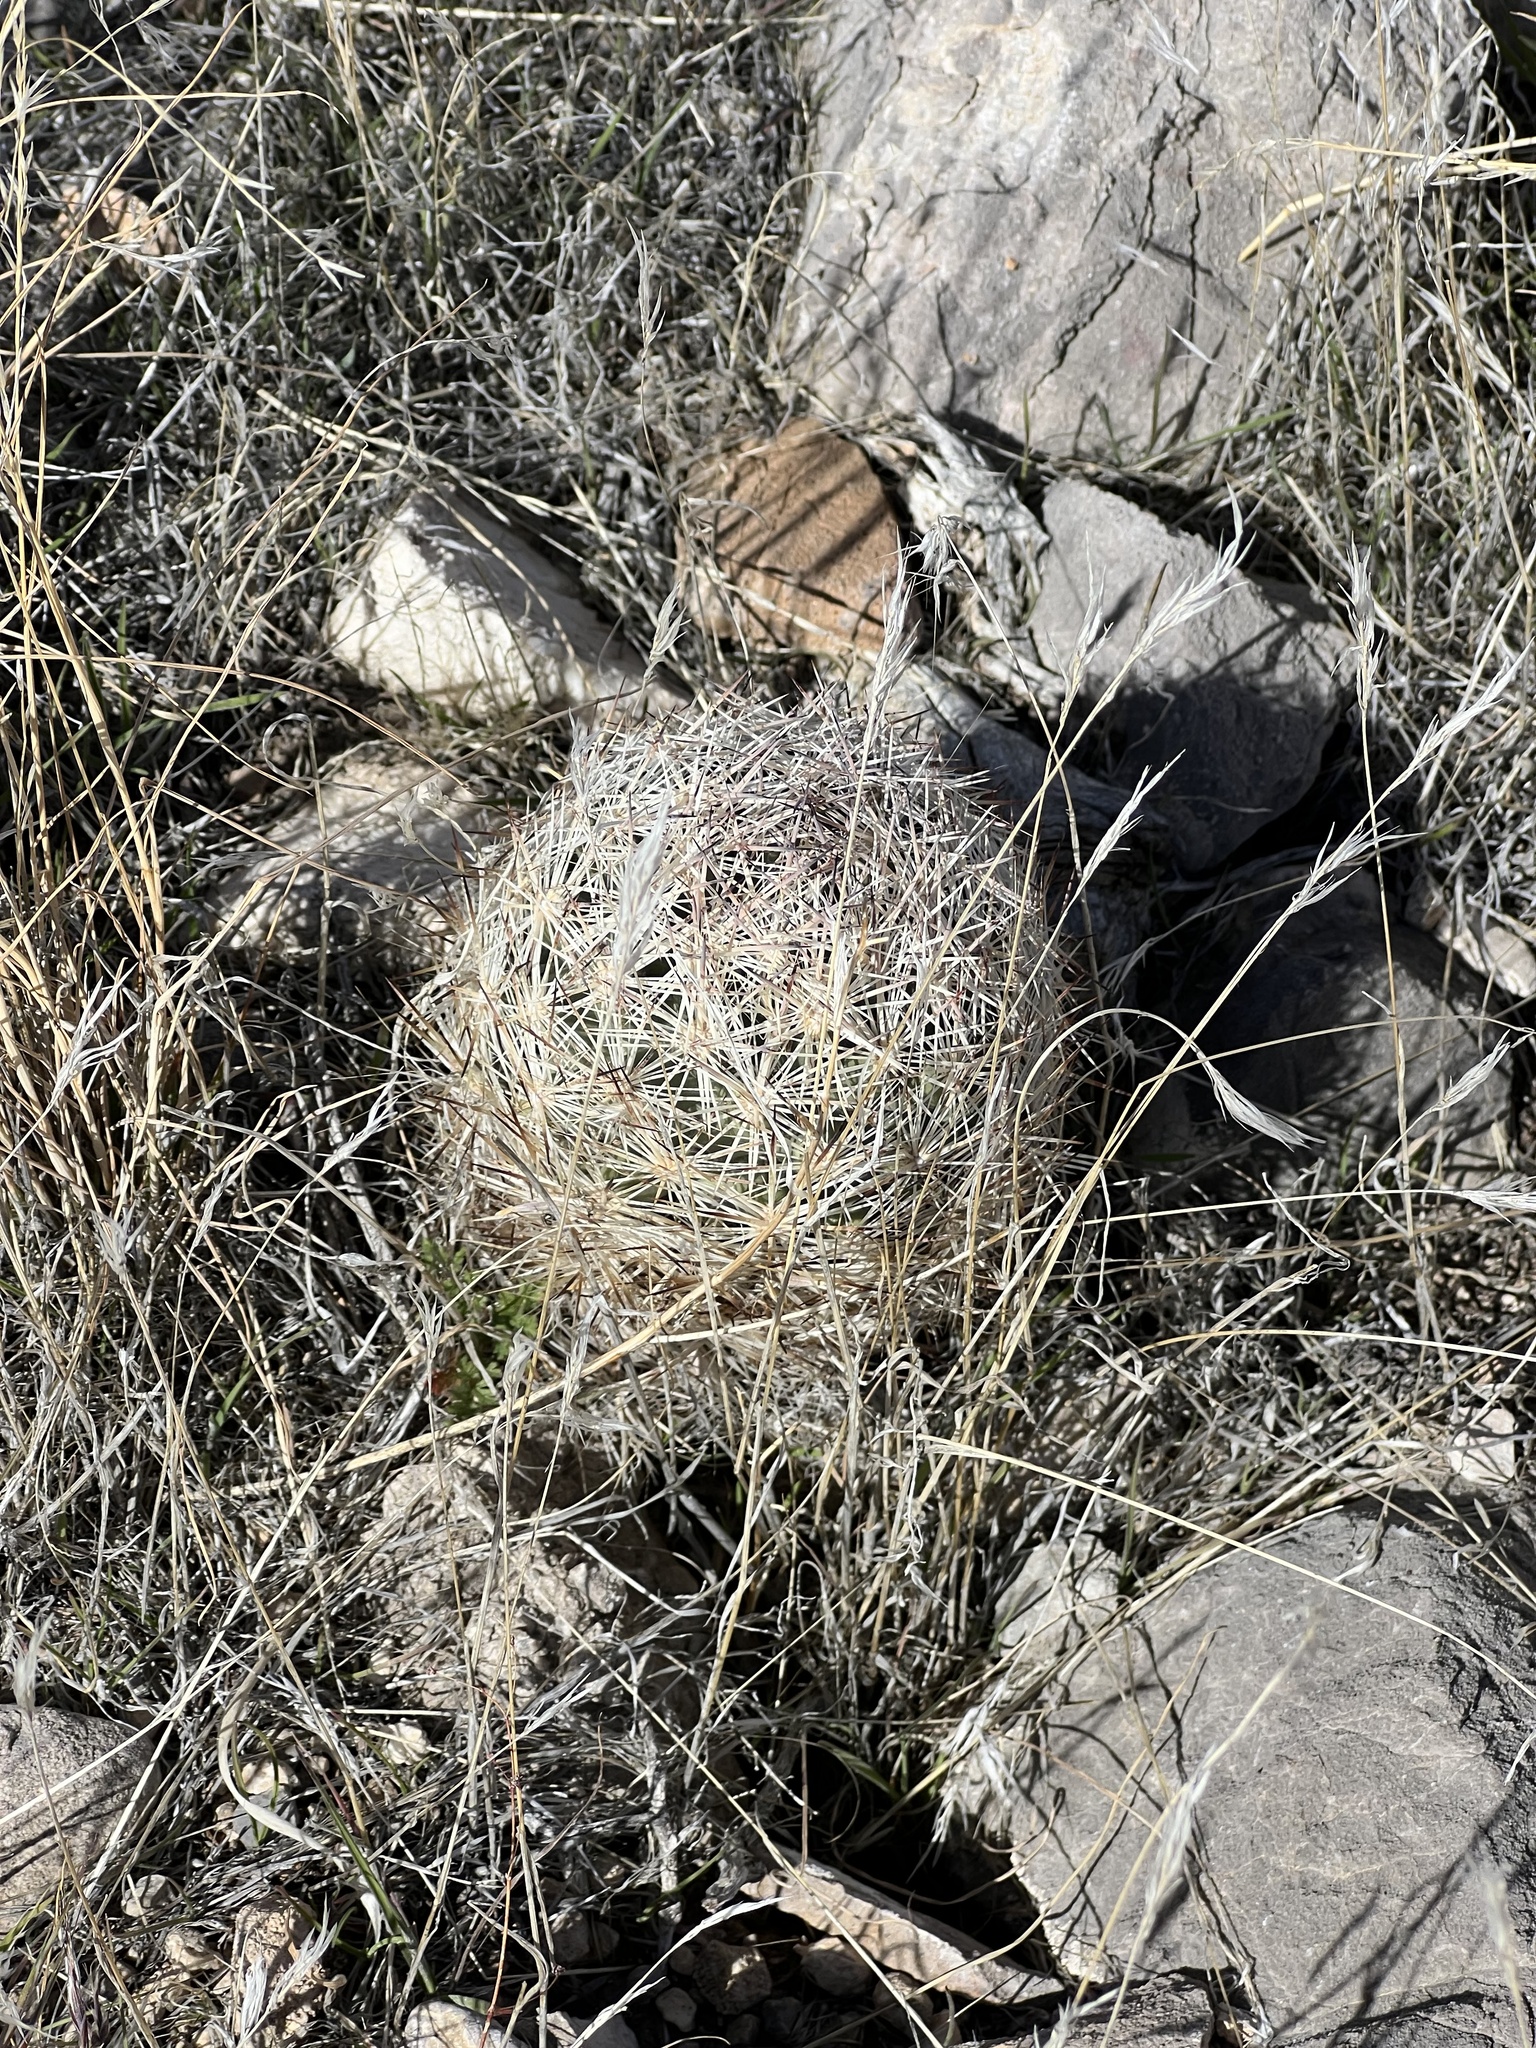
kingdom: Plantae
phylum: Tracheophyta
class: Magnoliopsida
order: Caryophyllales
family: Cactaceae
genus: Pelecyphora
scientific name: Pelecyphora dasyacantha
